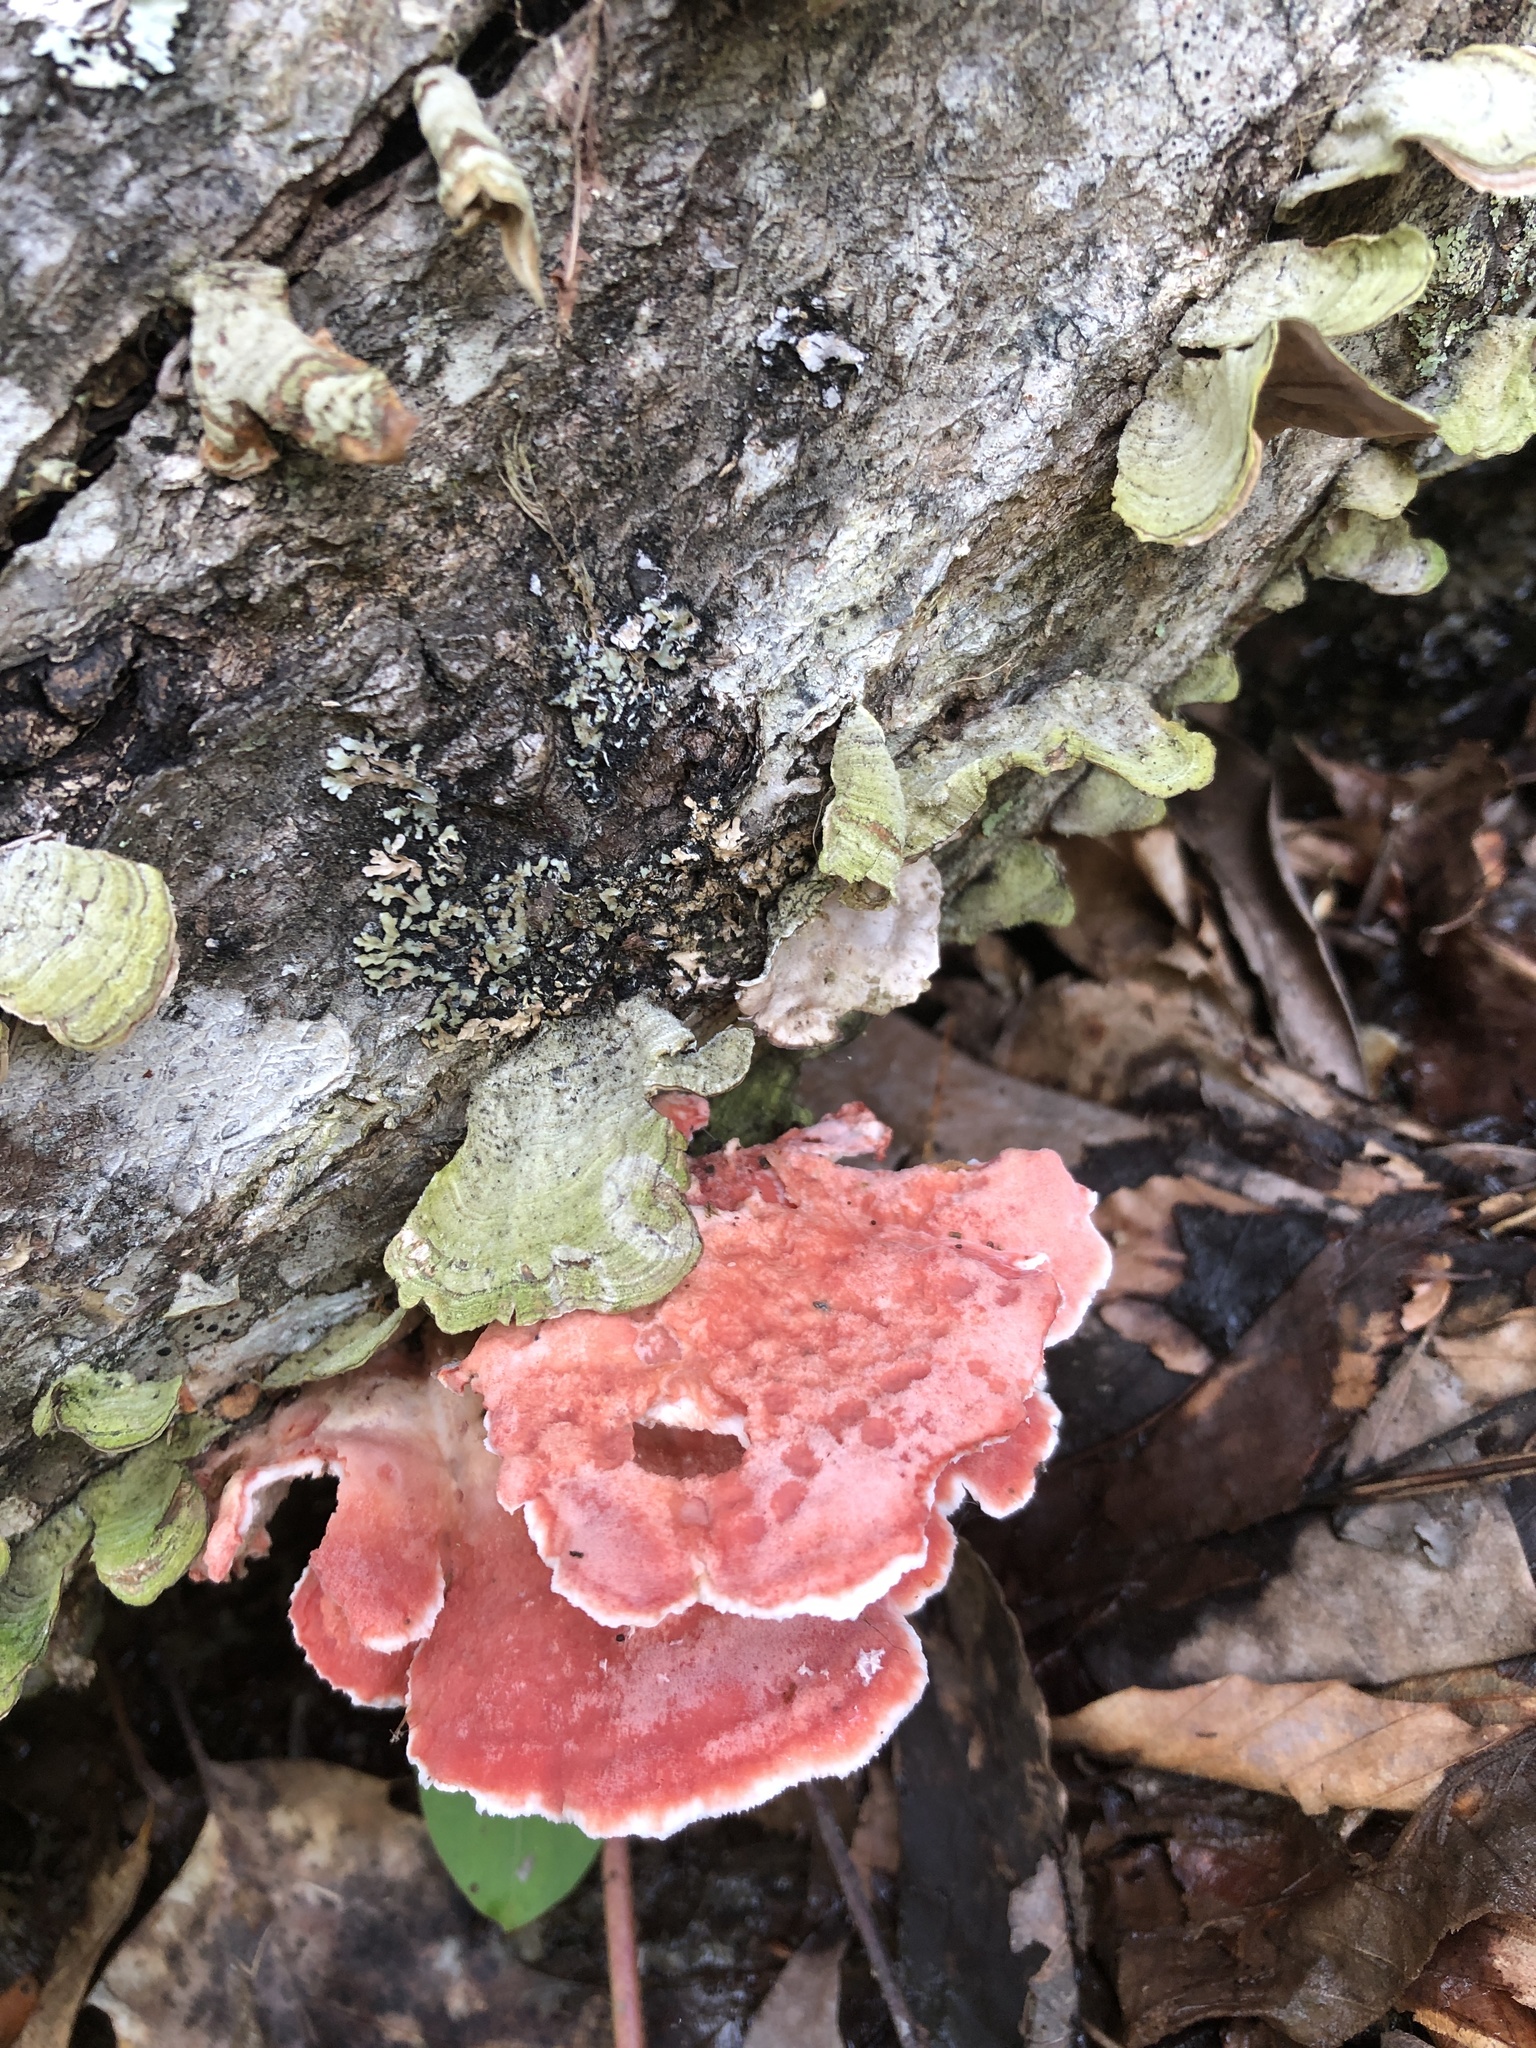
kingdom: Fungi
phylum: Basidiomycota
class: Agaricomycetes
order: Polyporales
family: Irpicaceae
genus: Byssomerulius
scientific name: Byssomerulius incarnatus
